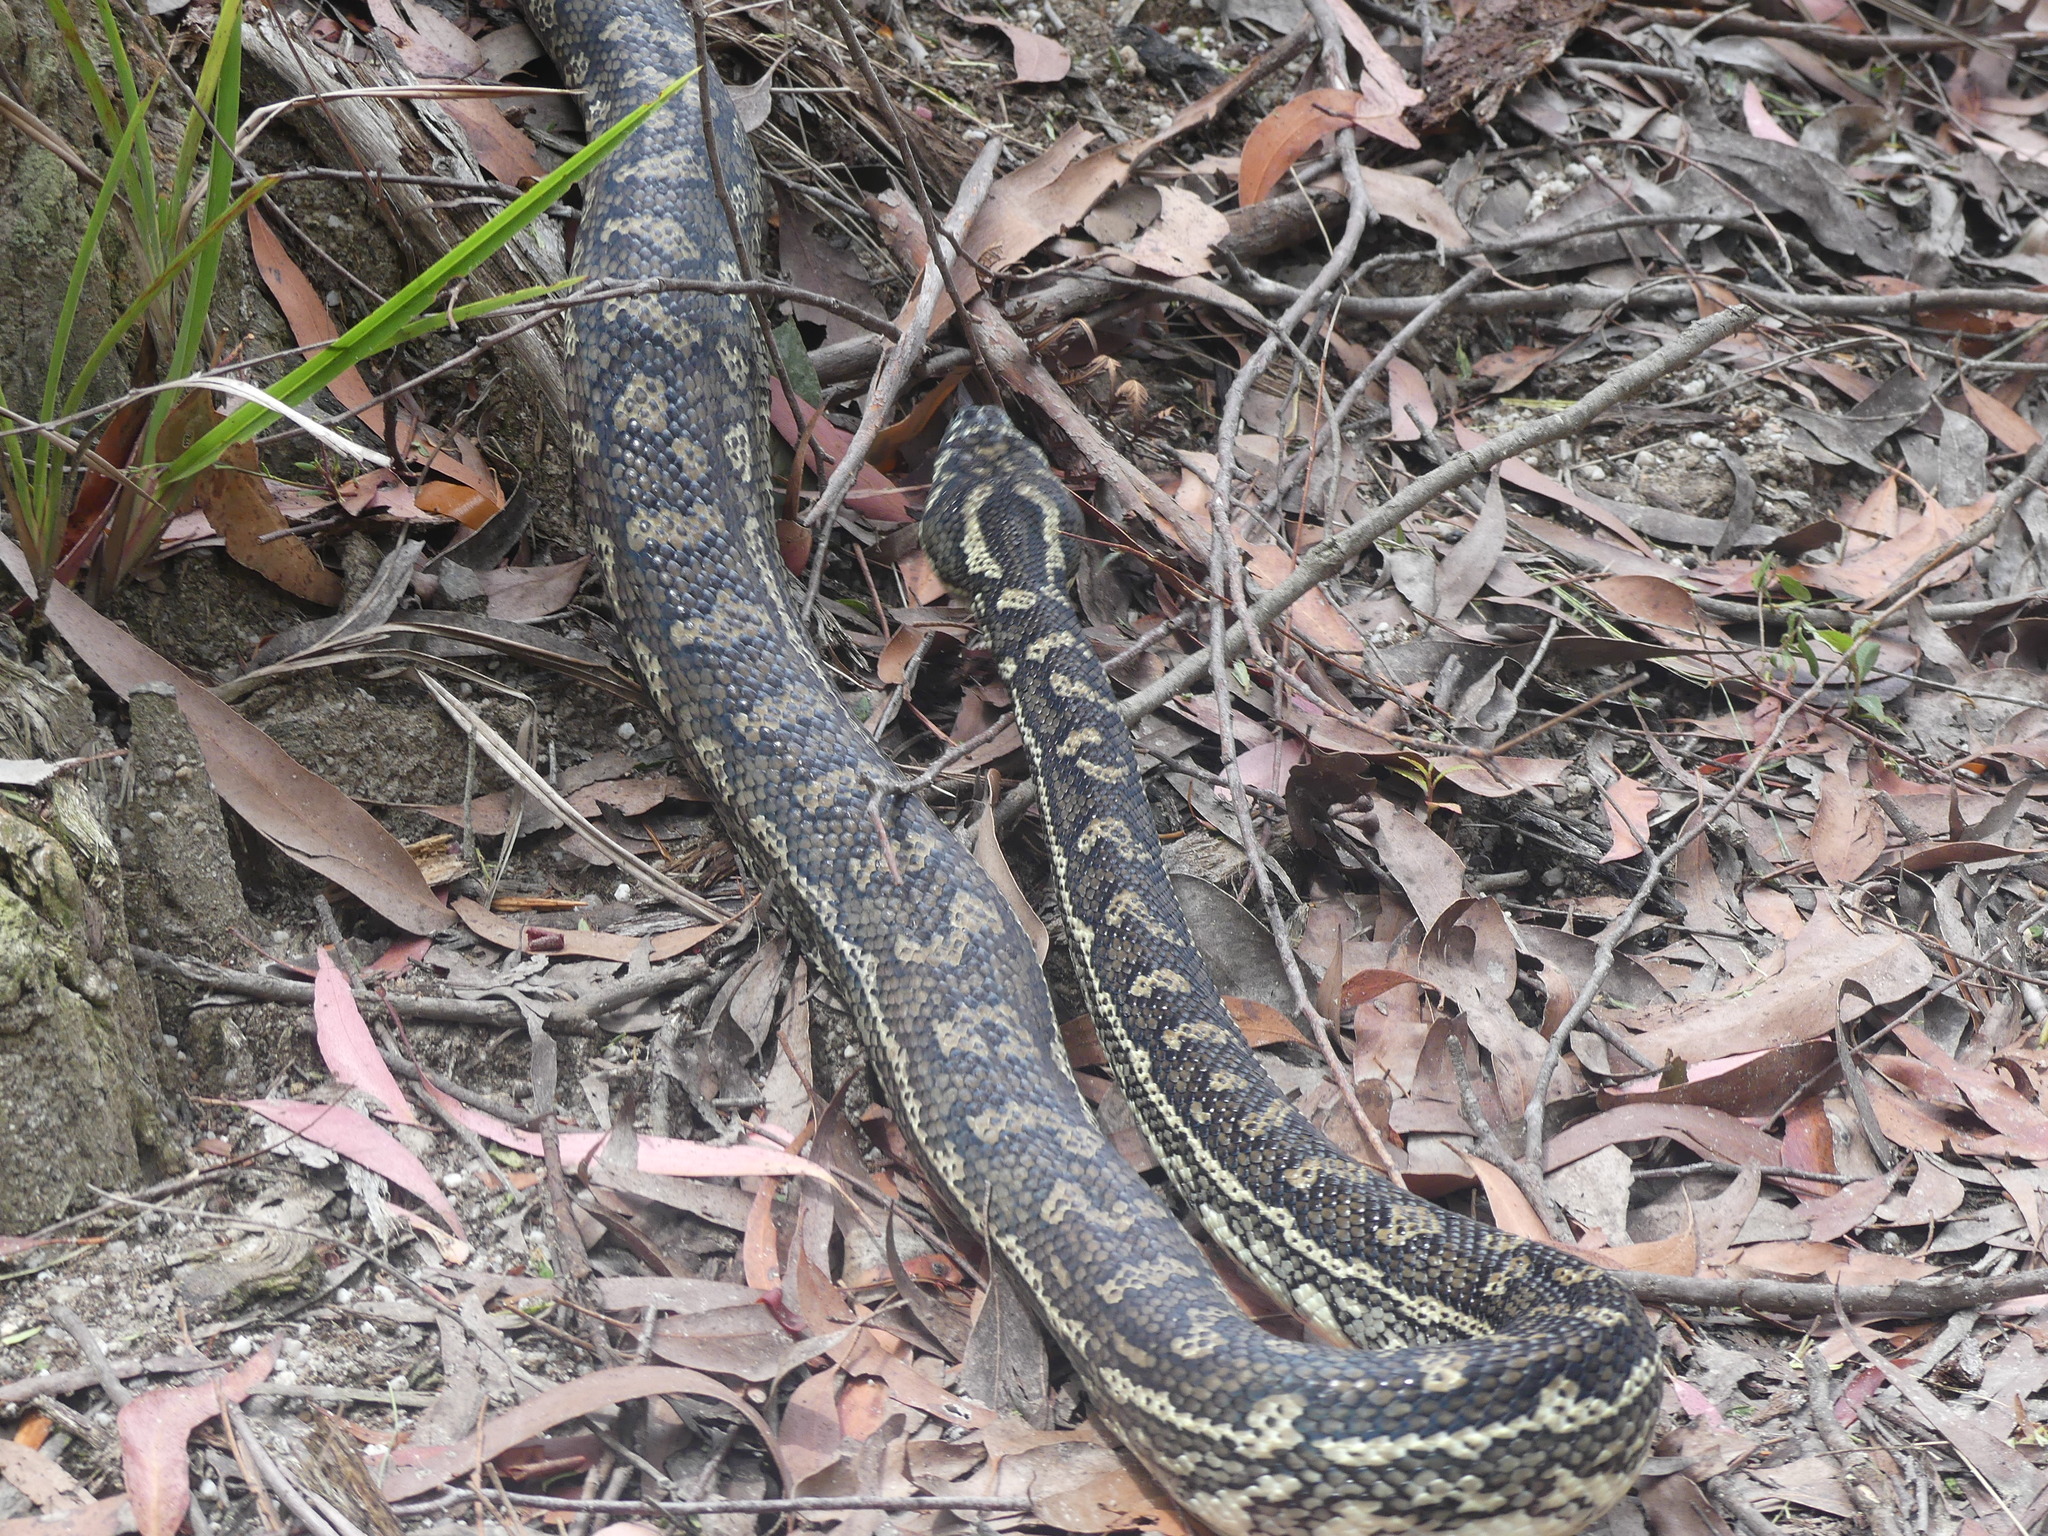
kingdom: Animalia
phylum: Chordata
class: Squamata
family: Pythonidae
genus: Morelia
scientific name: Morelia spilota
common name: Carpet python
